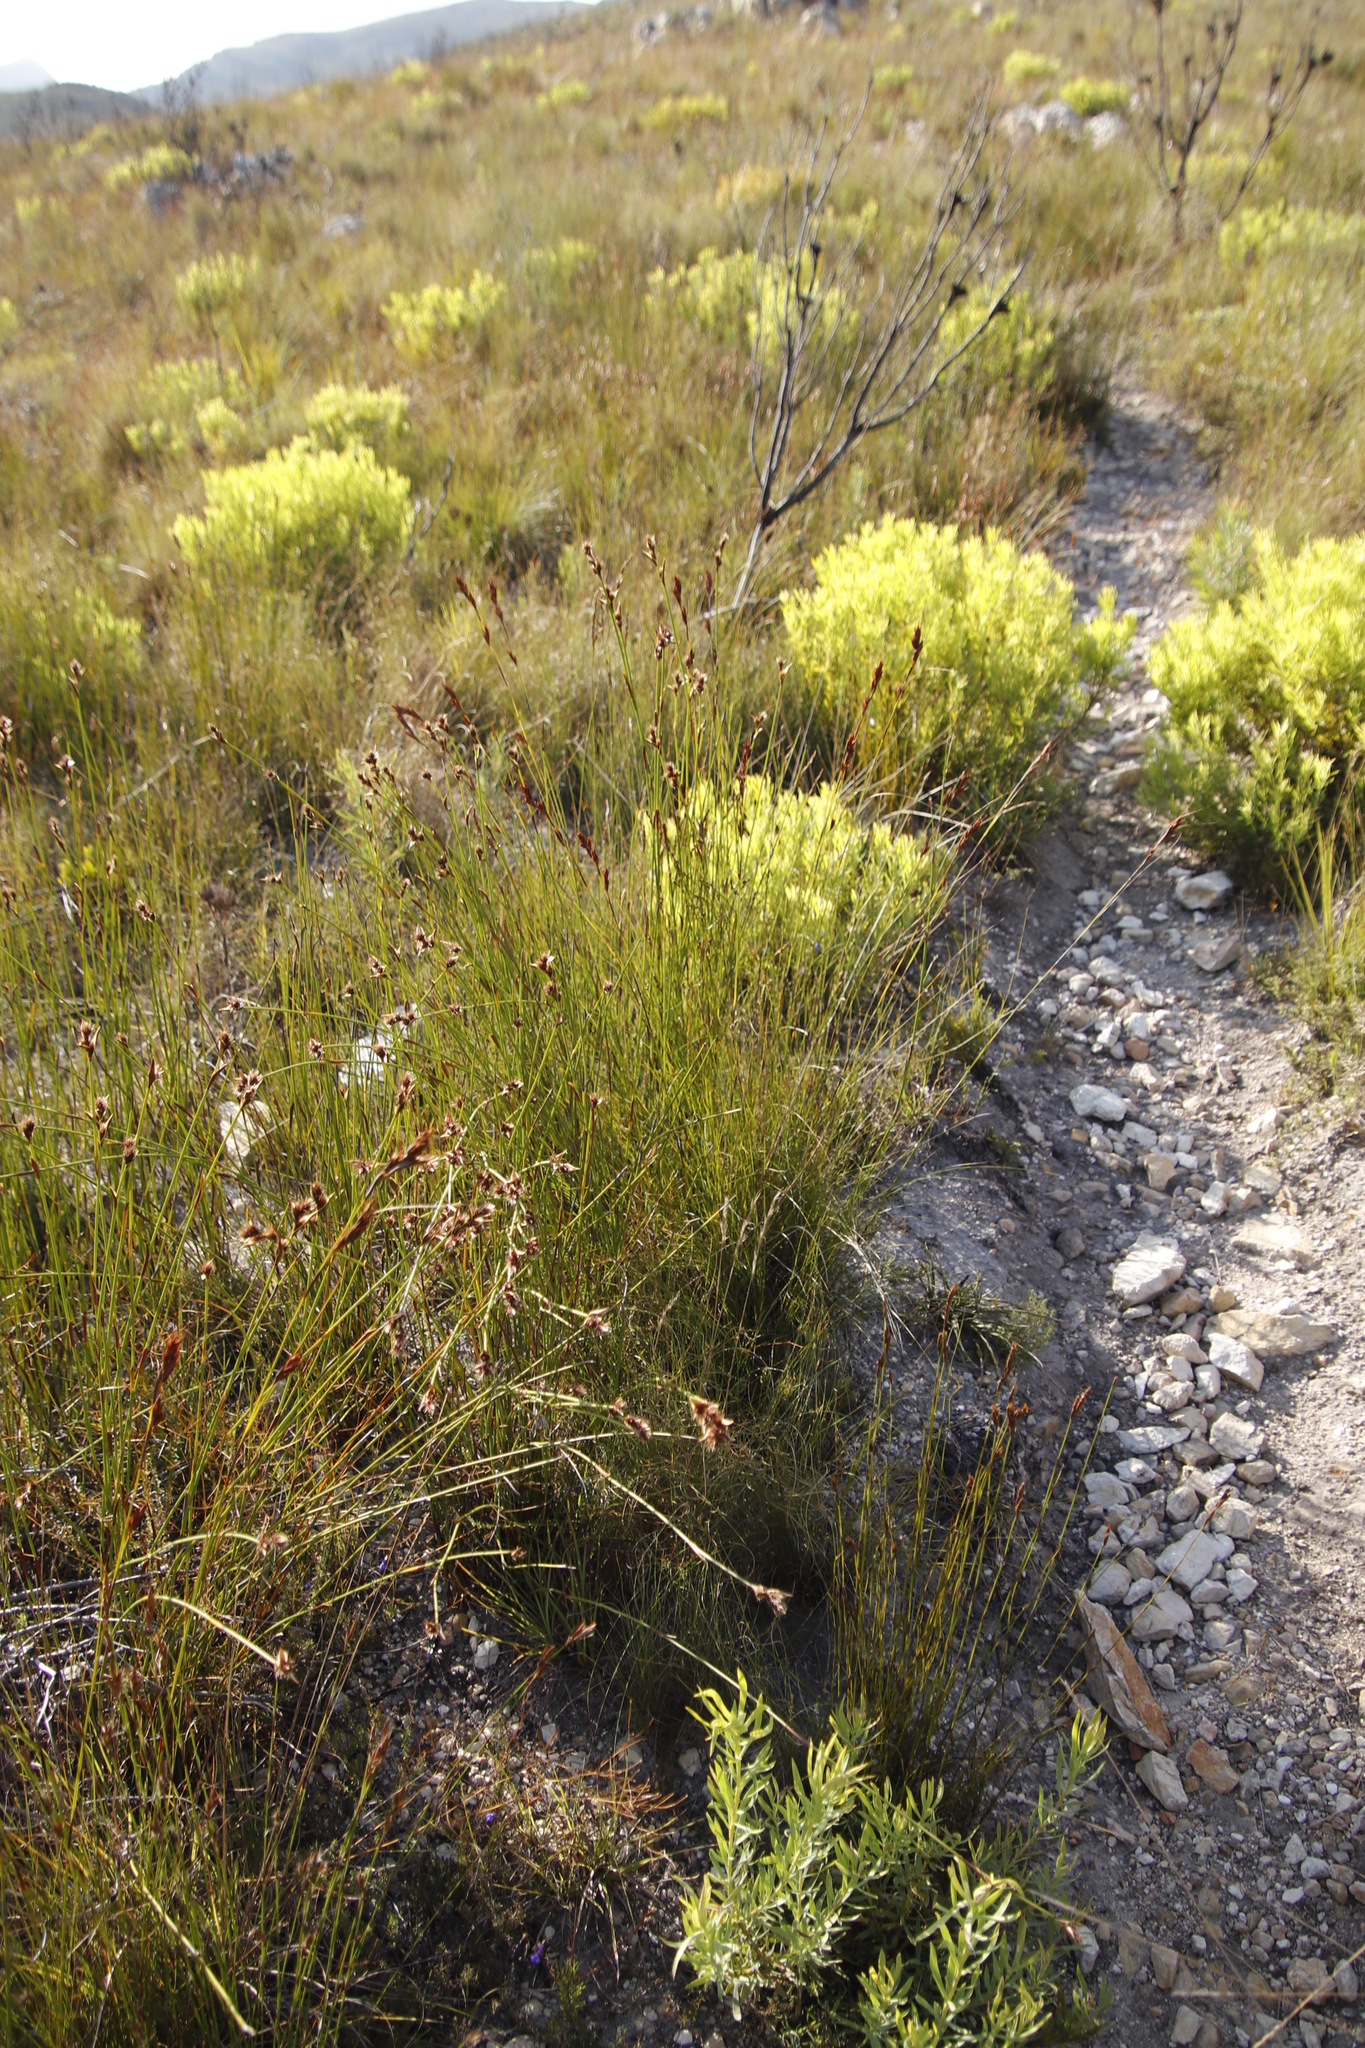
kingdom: Plantae
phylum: Tracheophyta
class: Liliopsida
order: Poales
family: Cyperaceae
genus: Tetraria
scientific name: Tetraria ustulata
